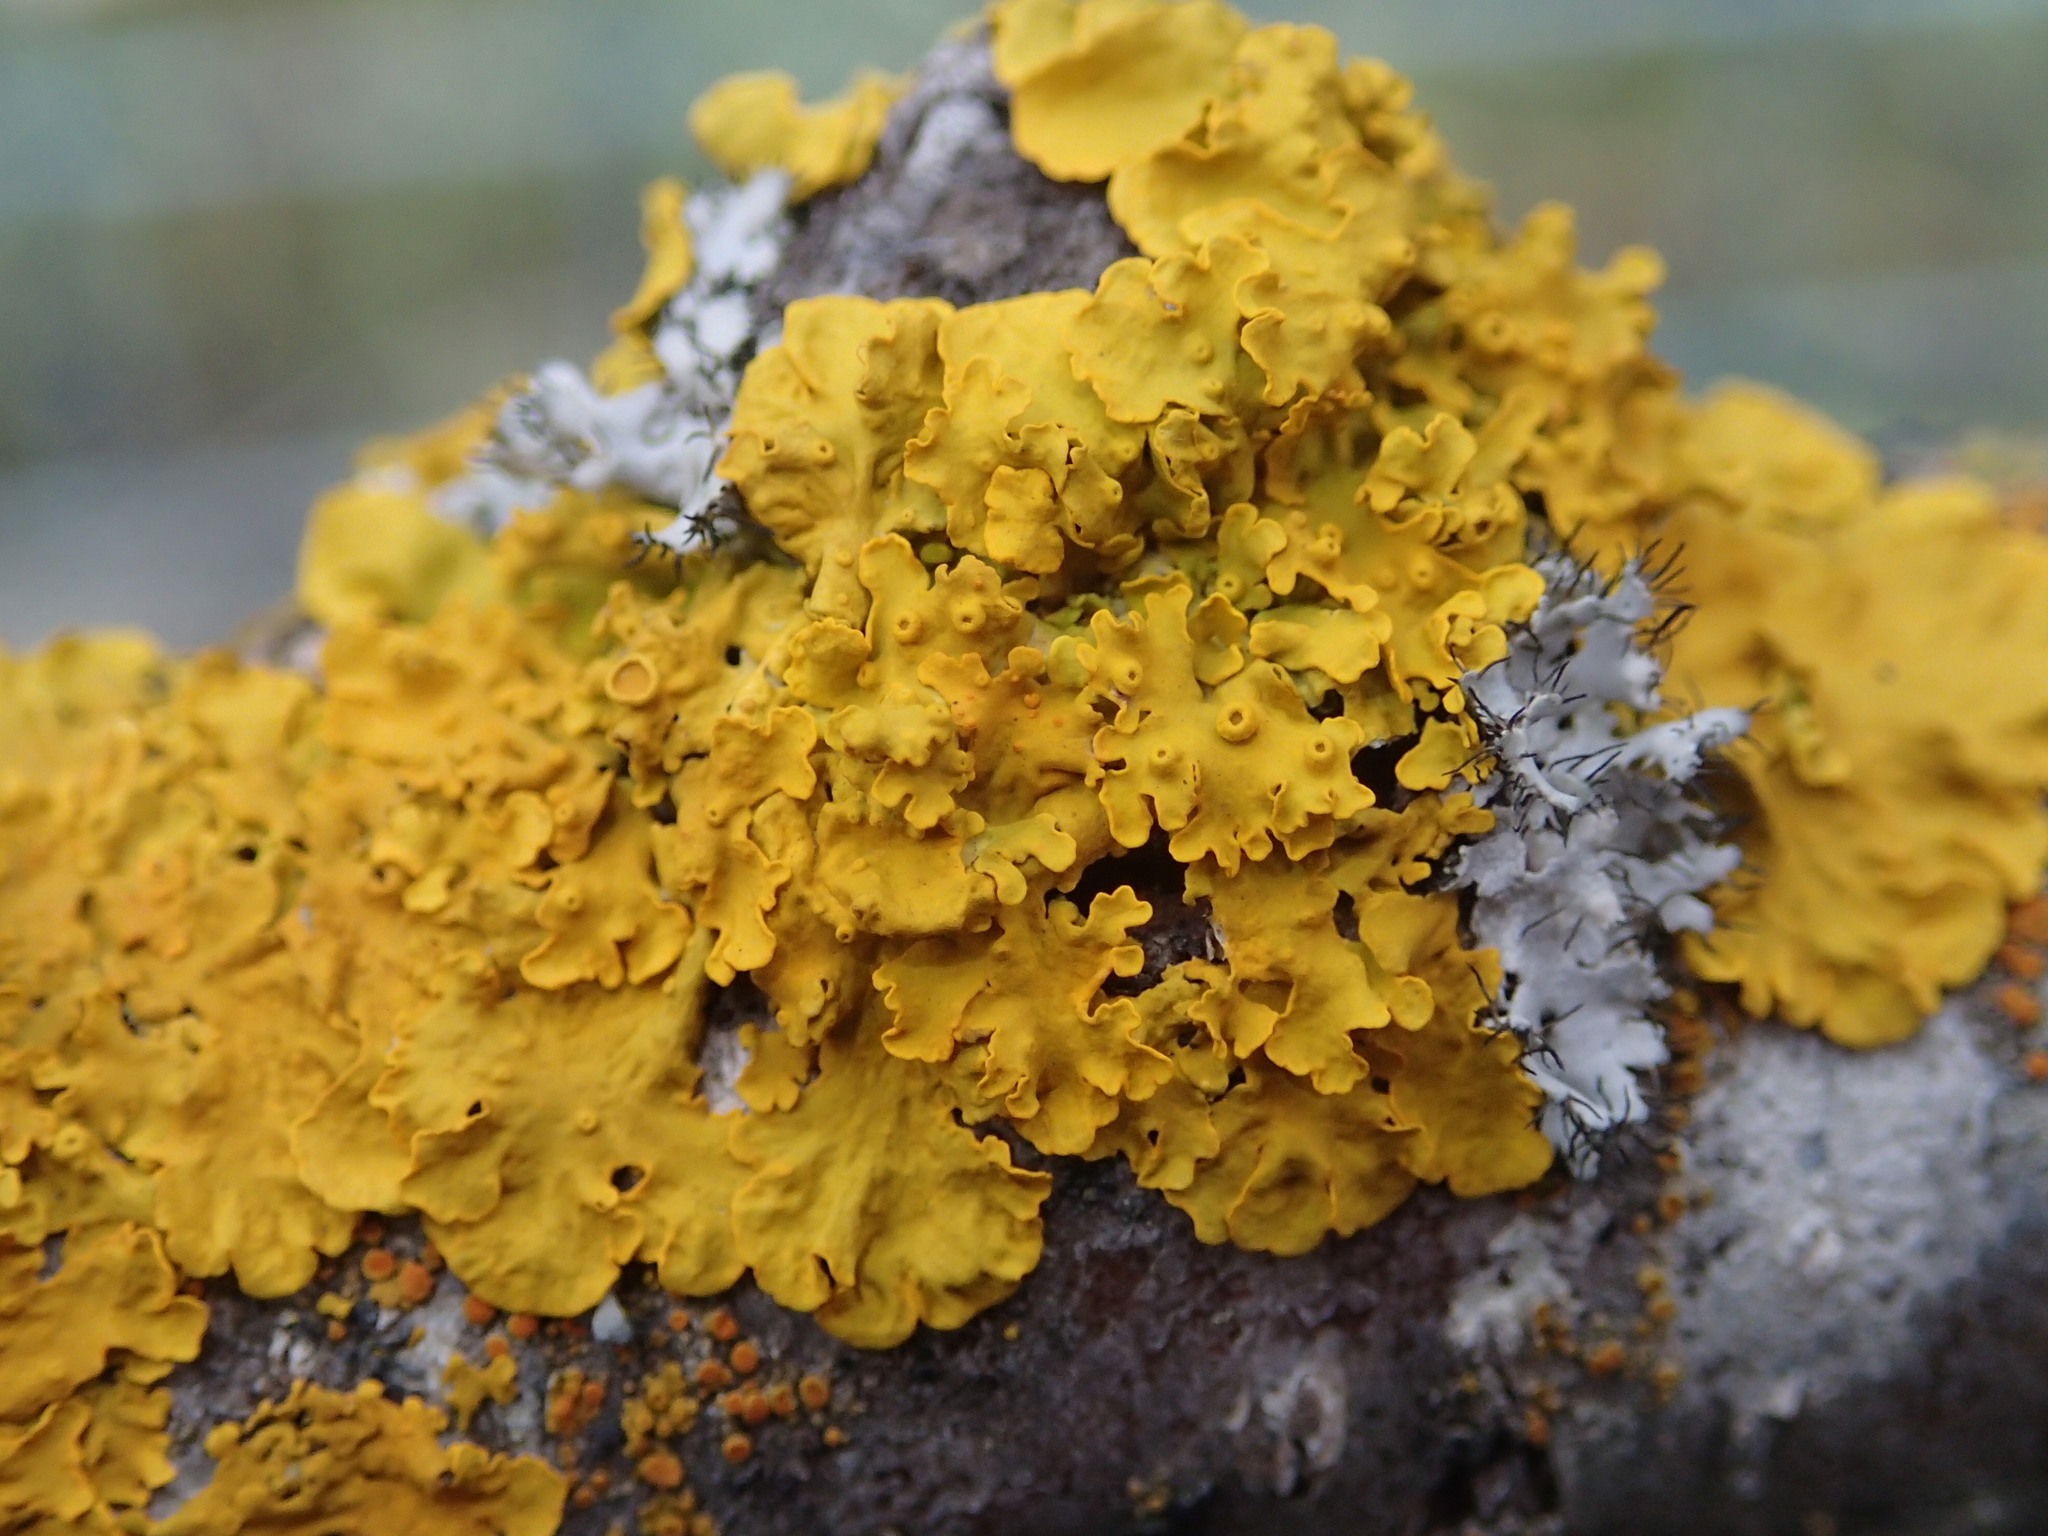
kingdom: Fungi
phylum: Ascomycota
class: Lecanoromycetes
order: Teloschistales
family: Teloschistaceae
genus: Xanthoria
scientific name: Xanthoria parietina
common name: Common orange lichen
